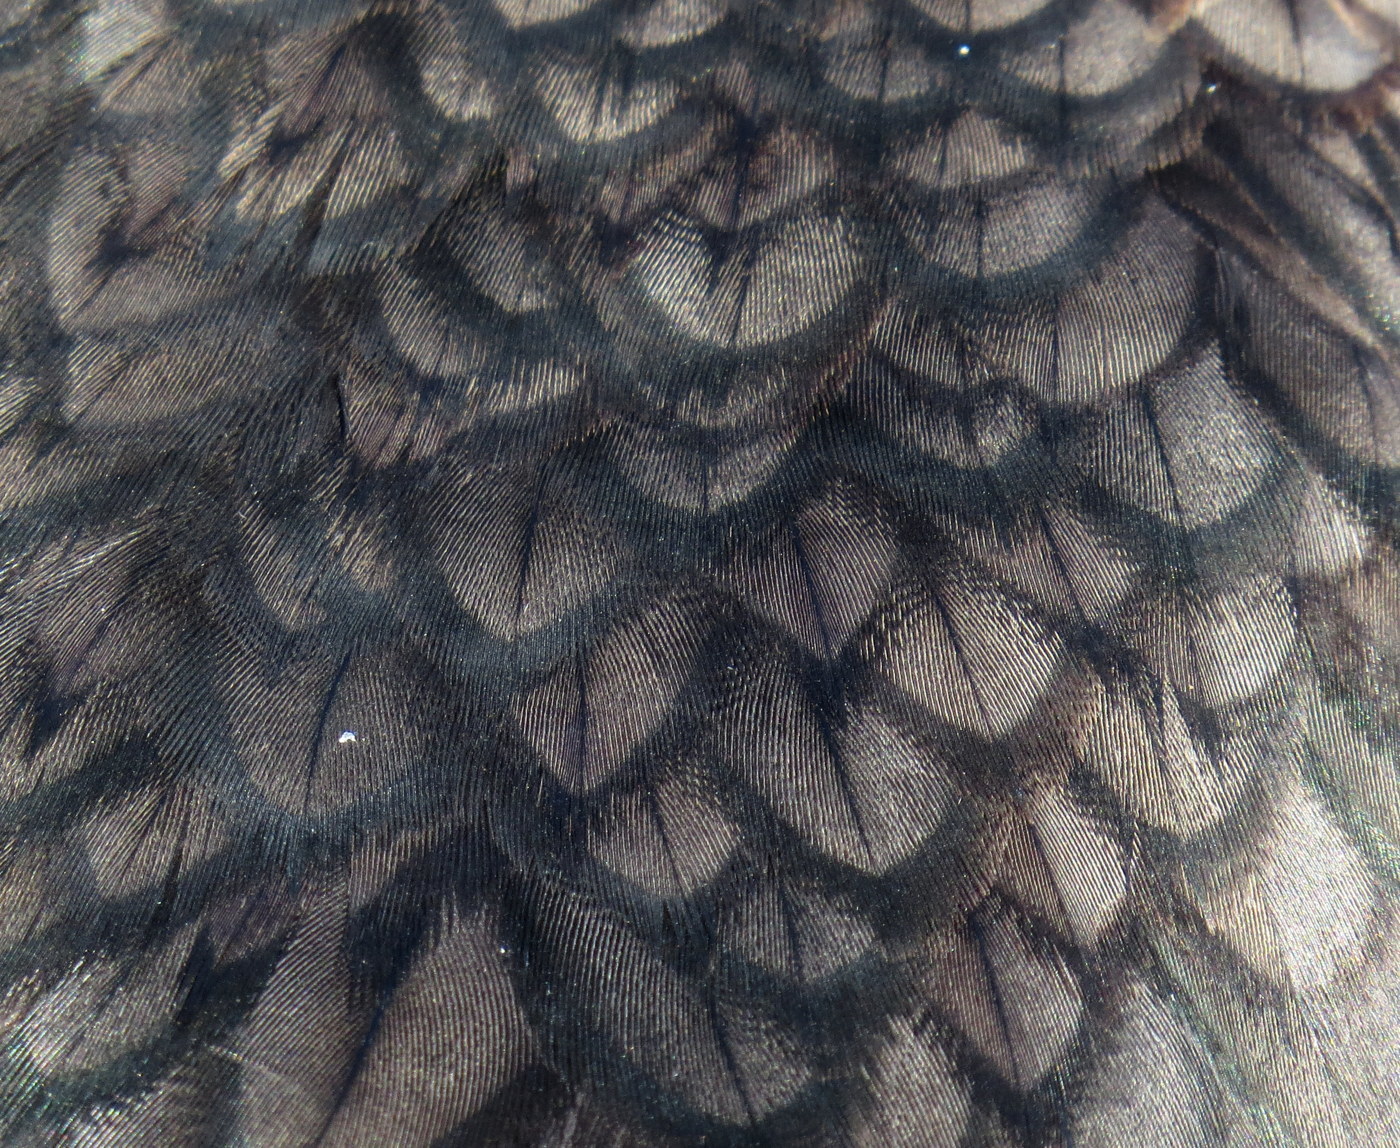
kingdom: Animalia
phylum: Chordata
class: Aves
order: Suliformes
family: Phalacrocoracidae
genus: Phalacrocorax
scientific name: Phalacrocorax auritus
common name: Double-crested cormorant
